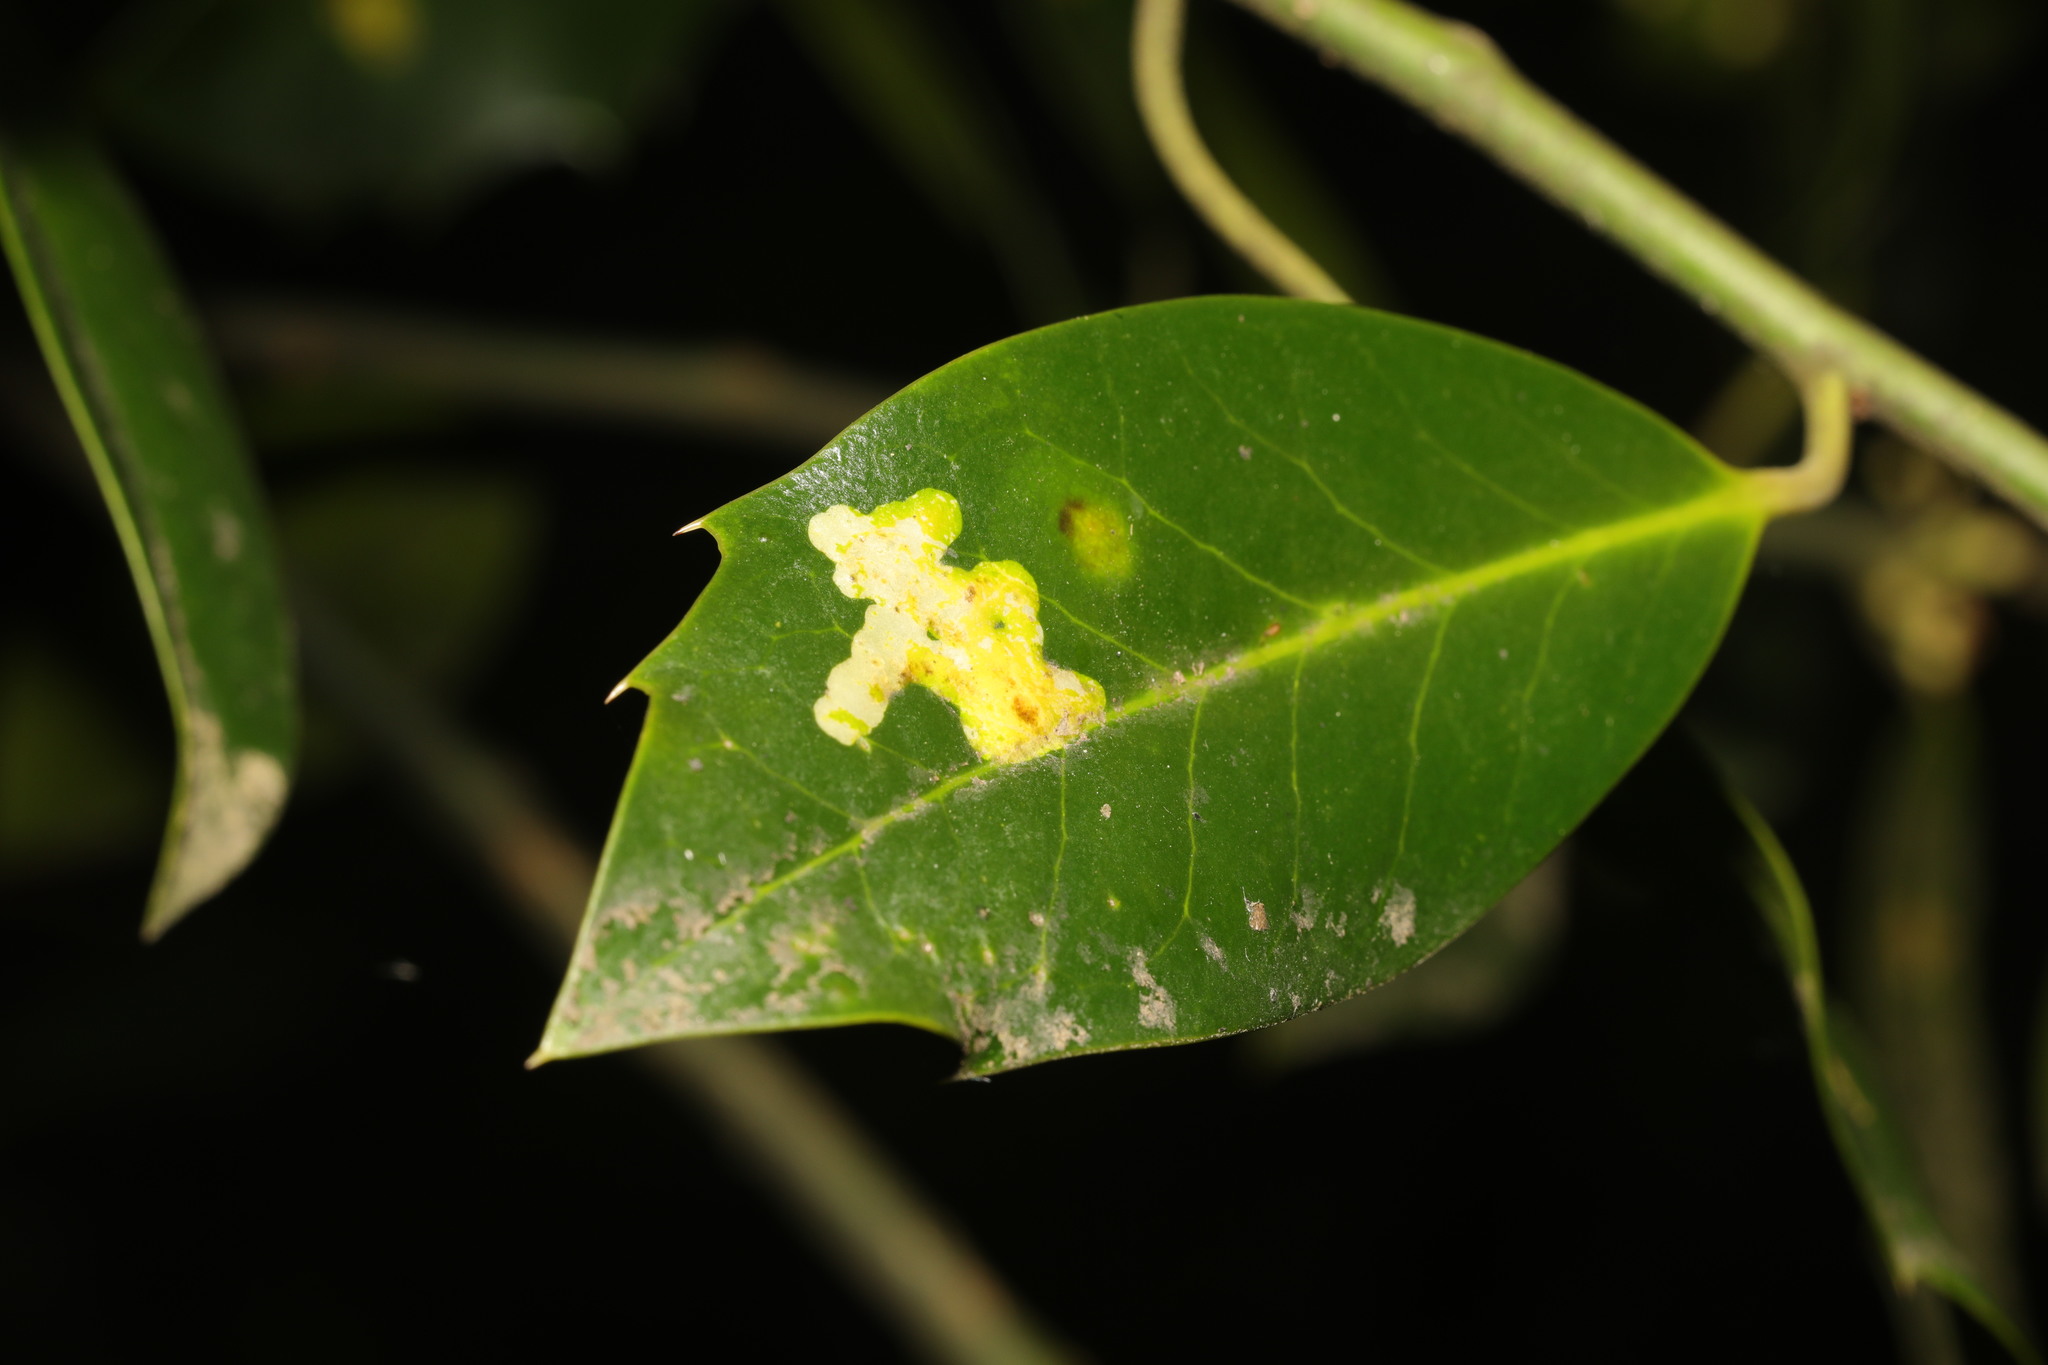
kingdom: Animalia
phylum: Arthropoda
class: Insecta
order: Diptera
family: Agromyzidae
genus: Phytomyza
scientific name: Phytomyza ilicis
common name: Holly leafminer
